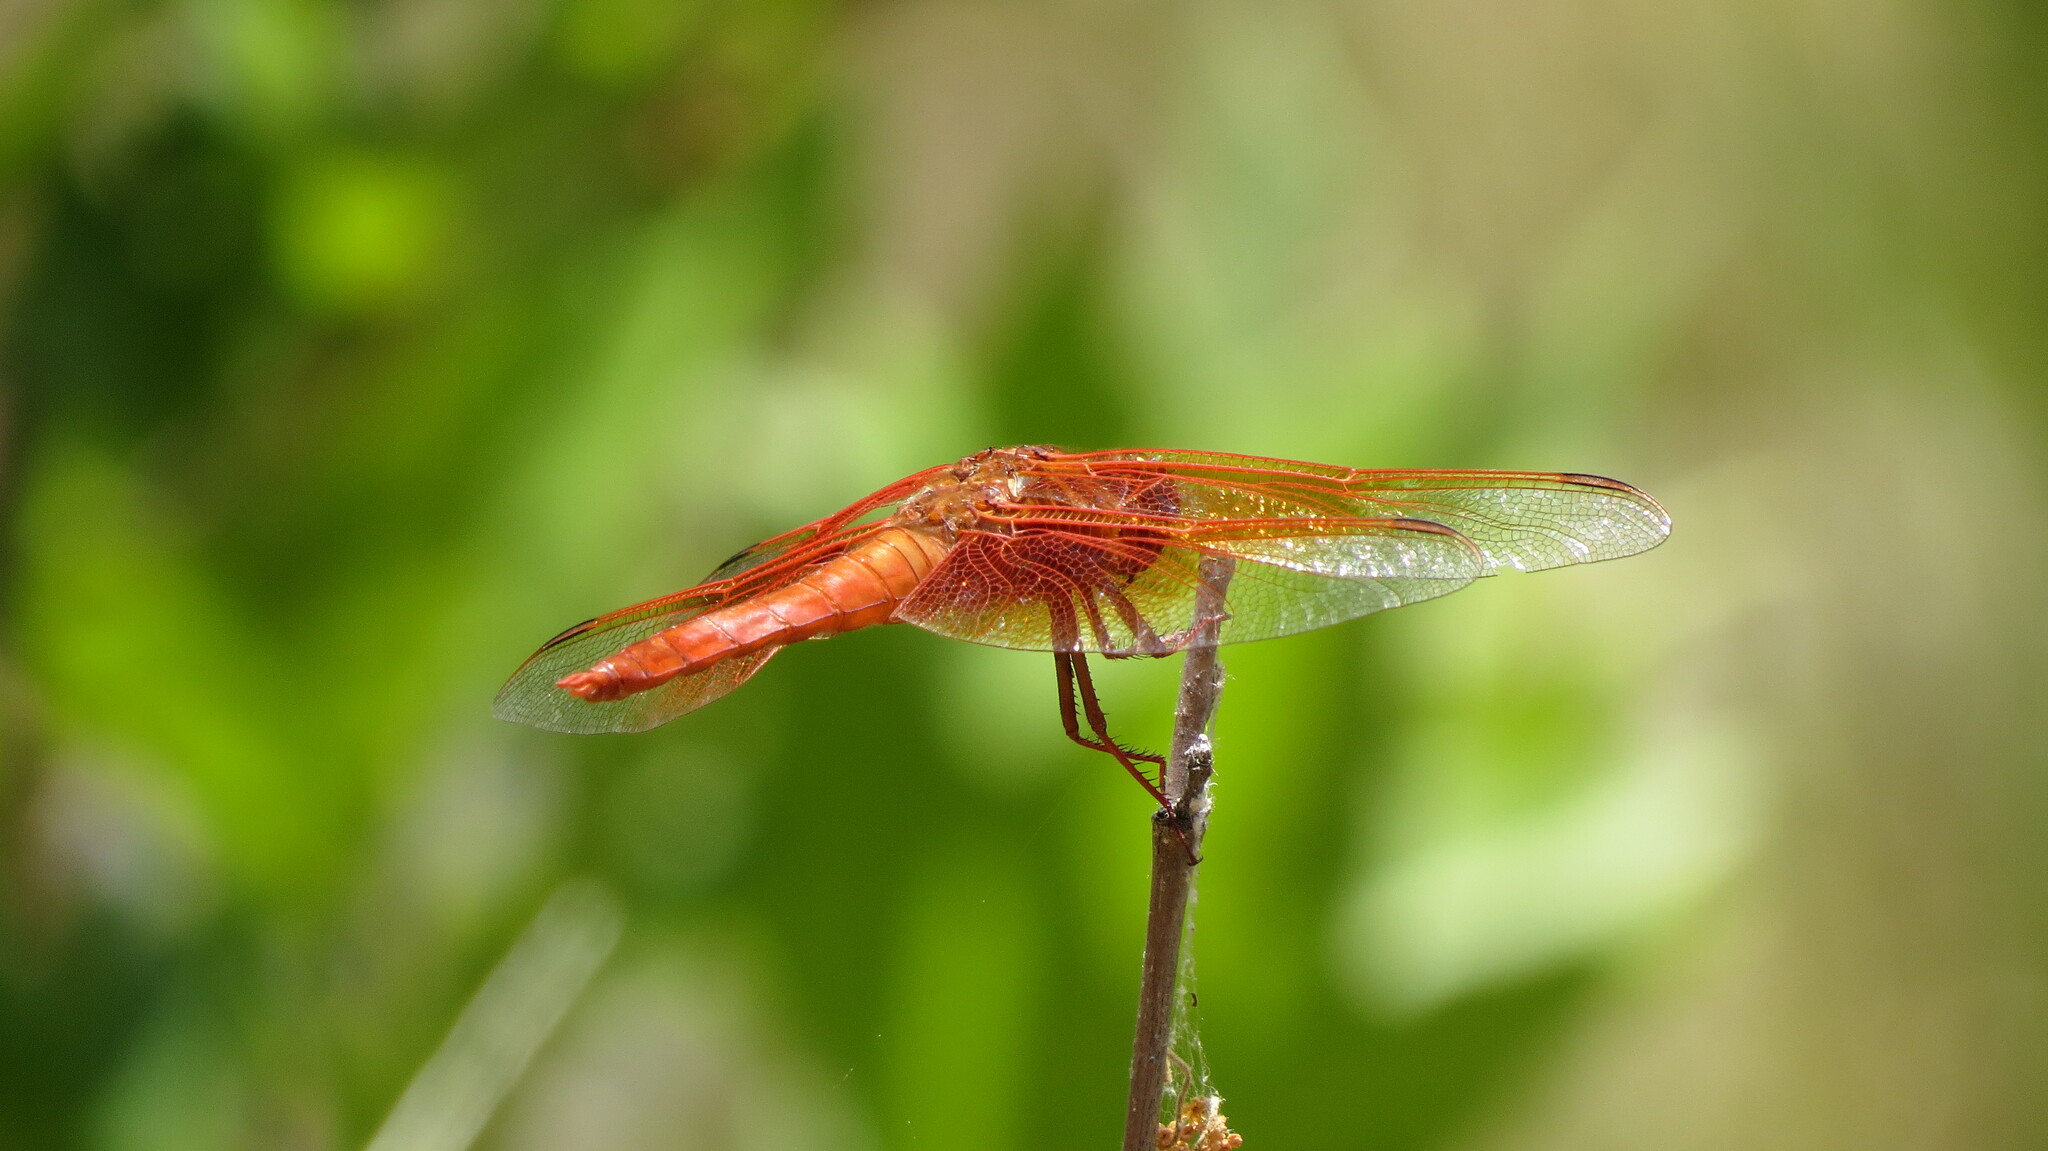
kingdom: Animalia
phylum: Arthropoda
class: Insecta
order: Odonata
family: Libellulidae
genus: Libellula
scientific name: Libellula saturata
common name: Flame skimmer
